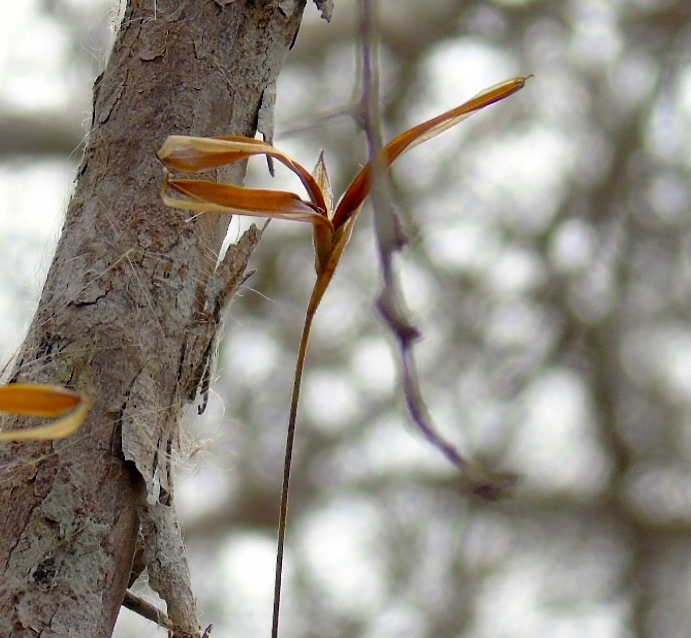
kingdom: Plantae
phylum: Tracheophyta
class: Liliopsida
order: Poales
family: Bromeliaceae
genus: Tillandsia
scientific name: Tillandsia recurvata
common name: Small ballmoss
